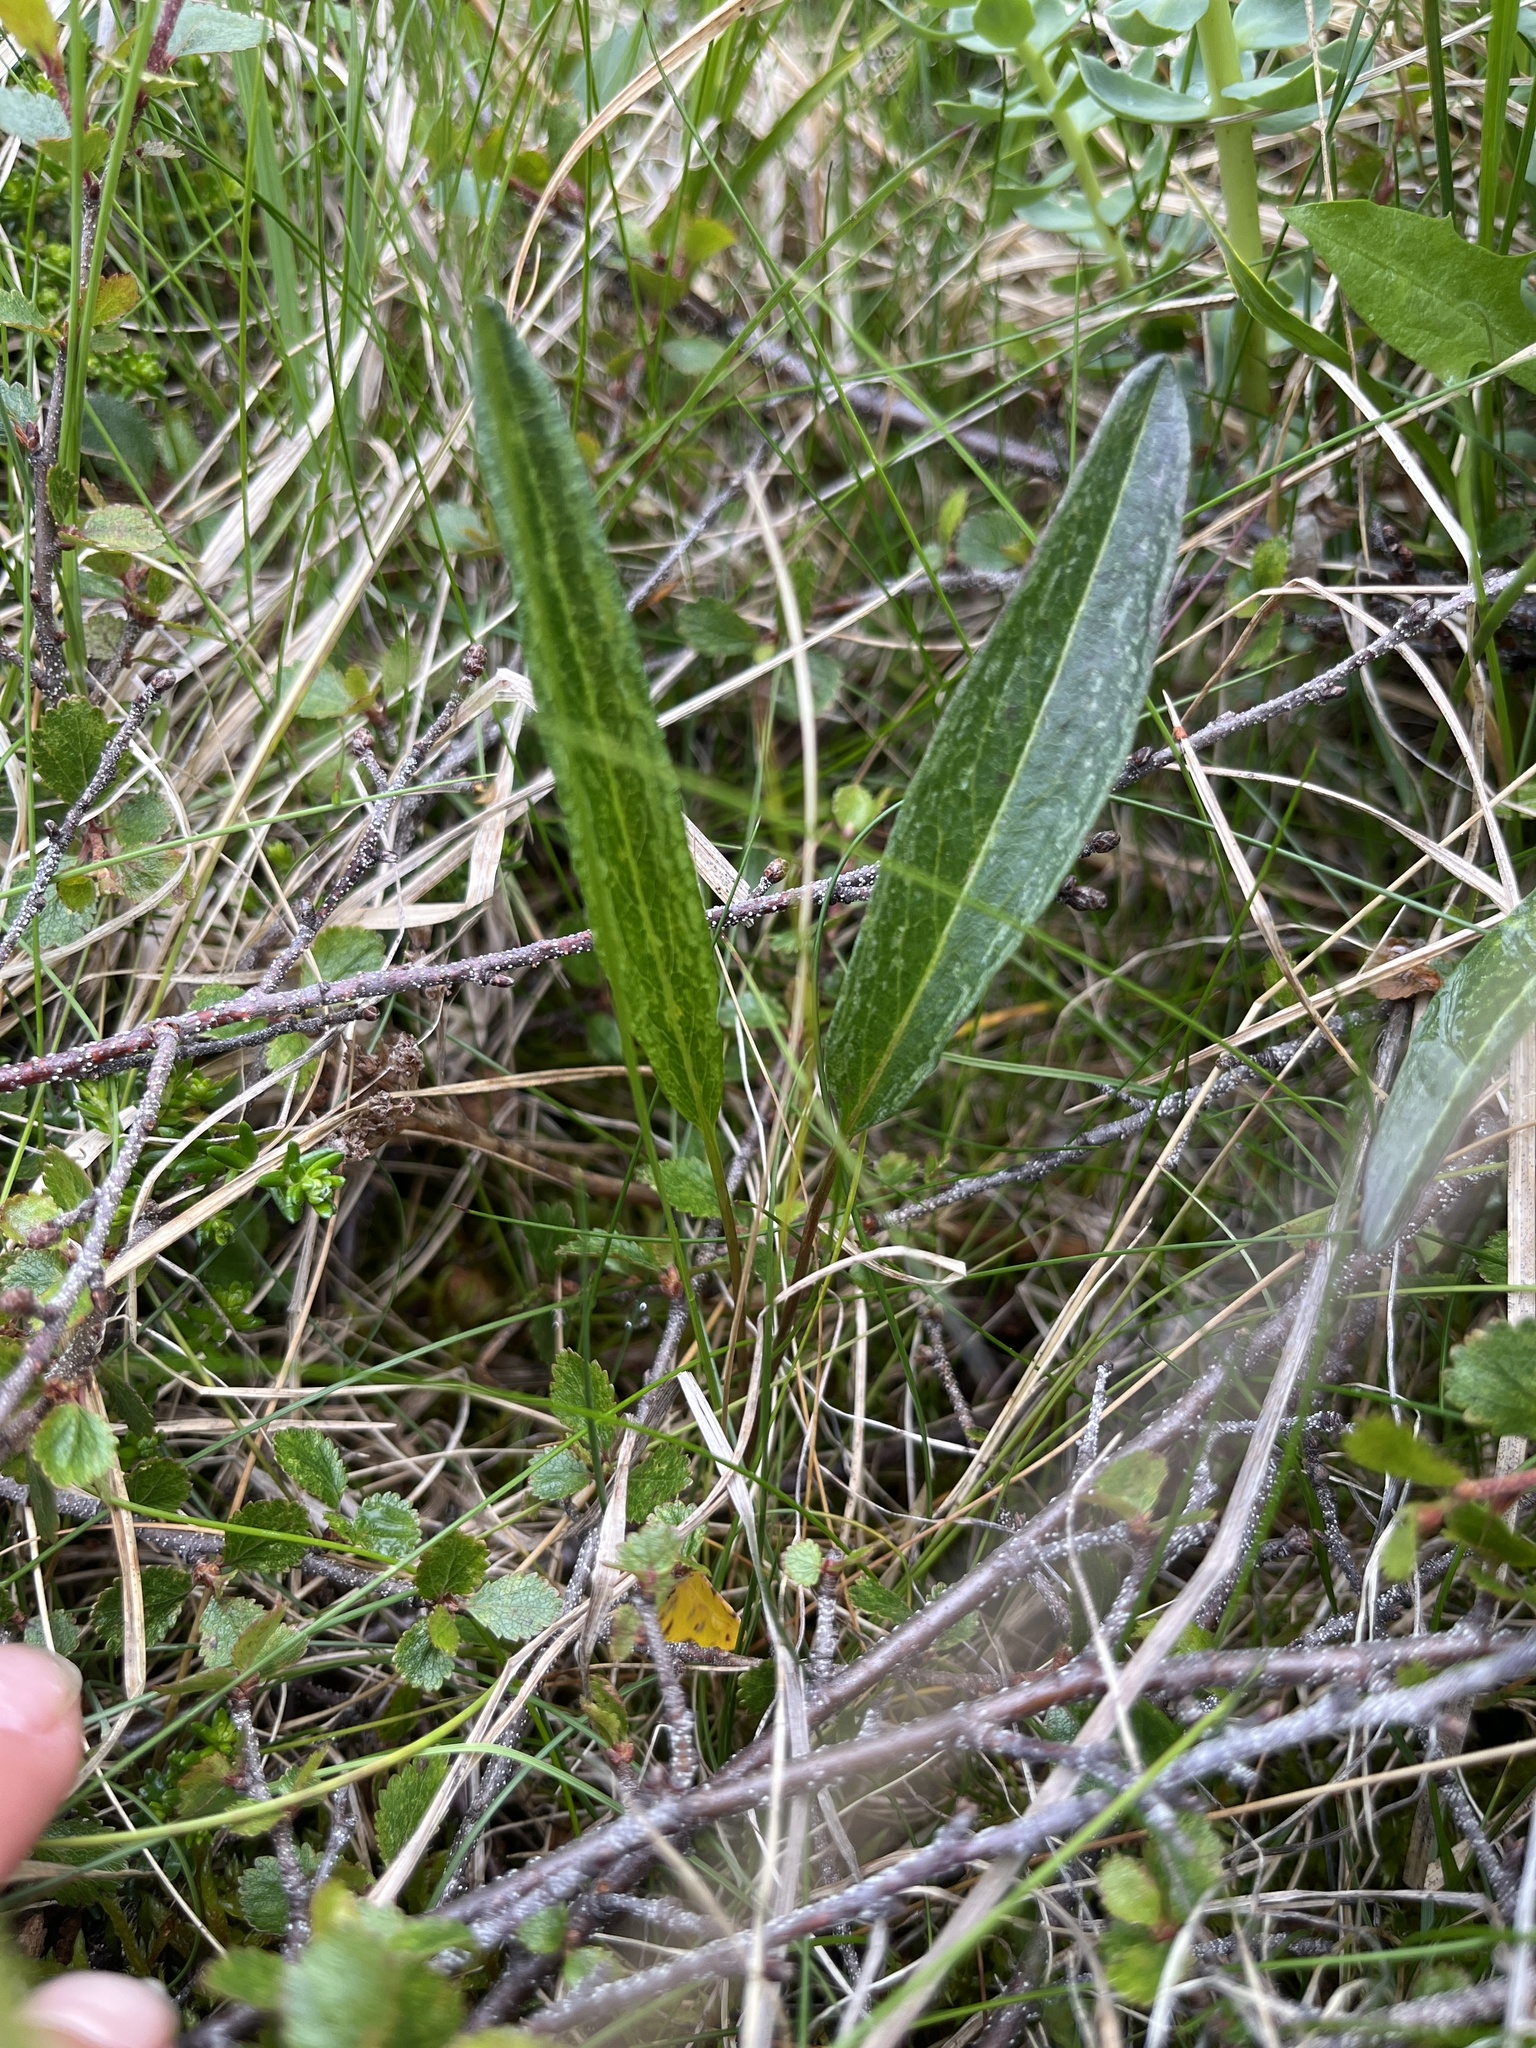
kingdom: Plantae
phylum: Tracheophyta
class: Magnoliopsida
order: Caryophyllales
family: Polygonaceae
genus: Bistorta
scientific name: Bistorta vivipara
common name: Alpine bistort
